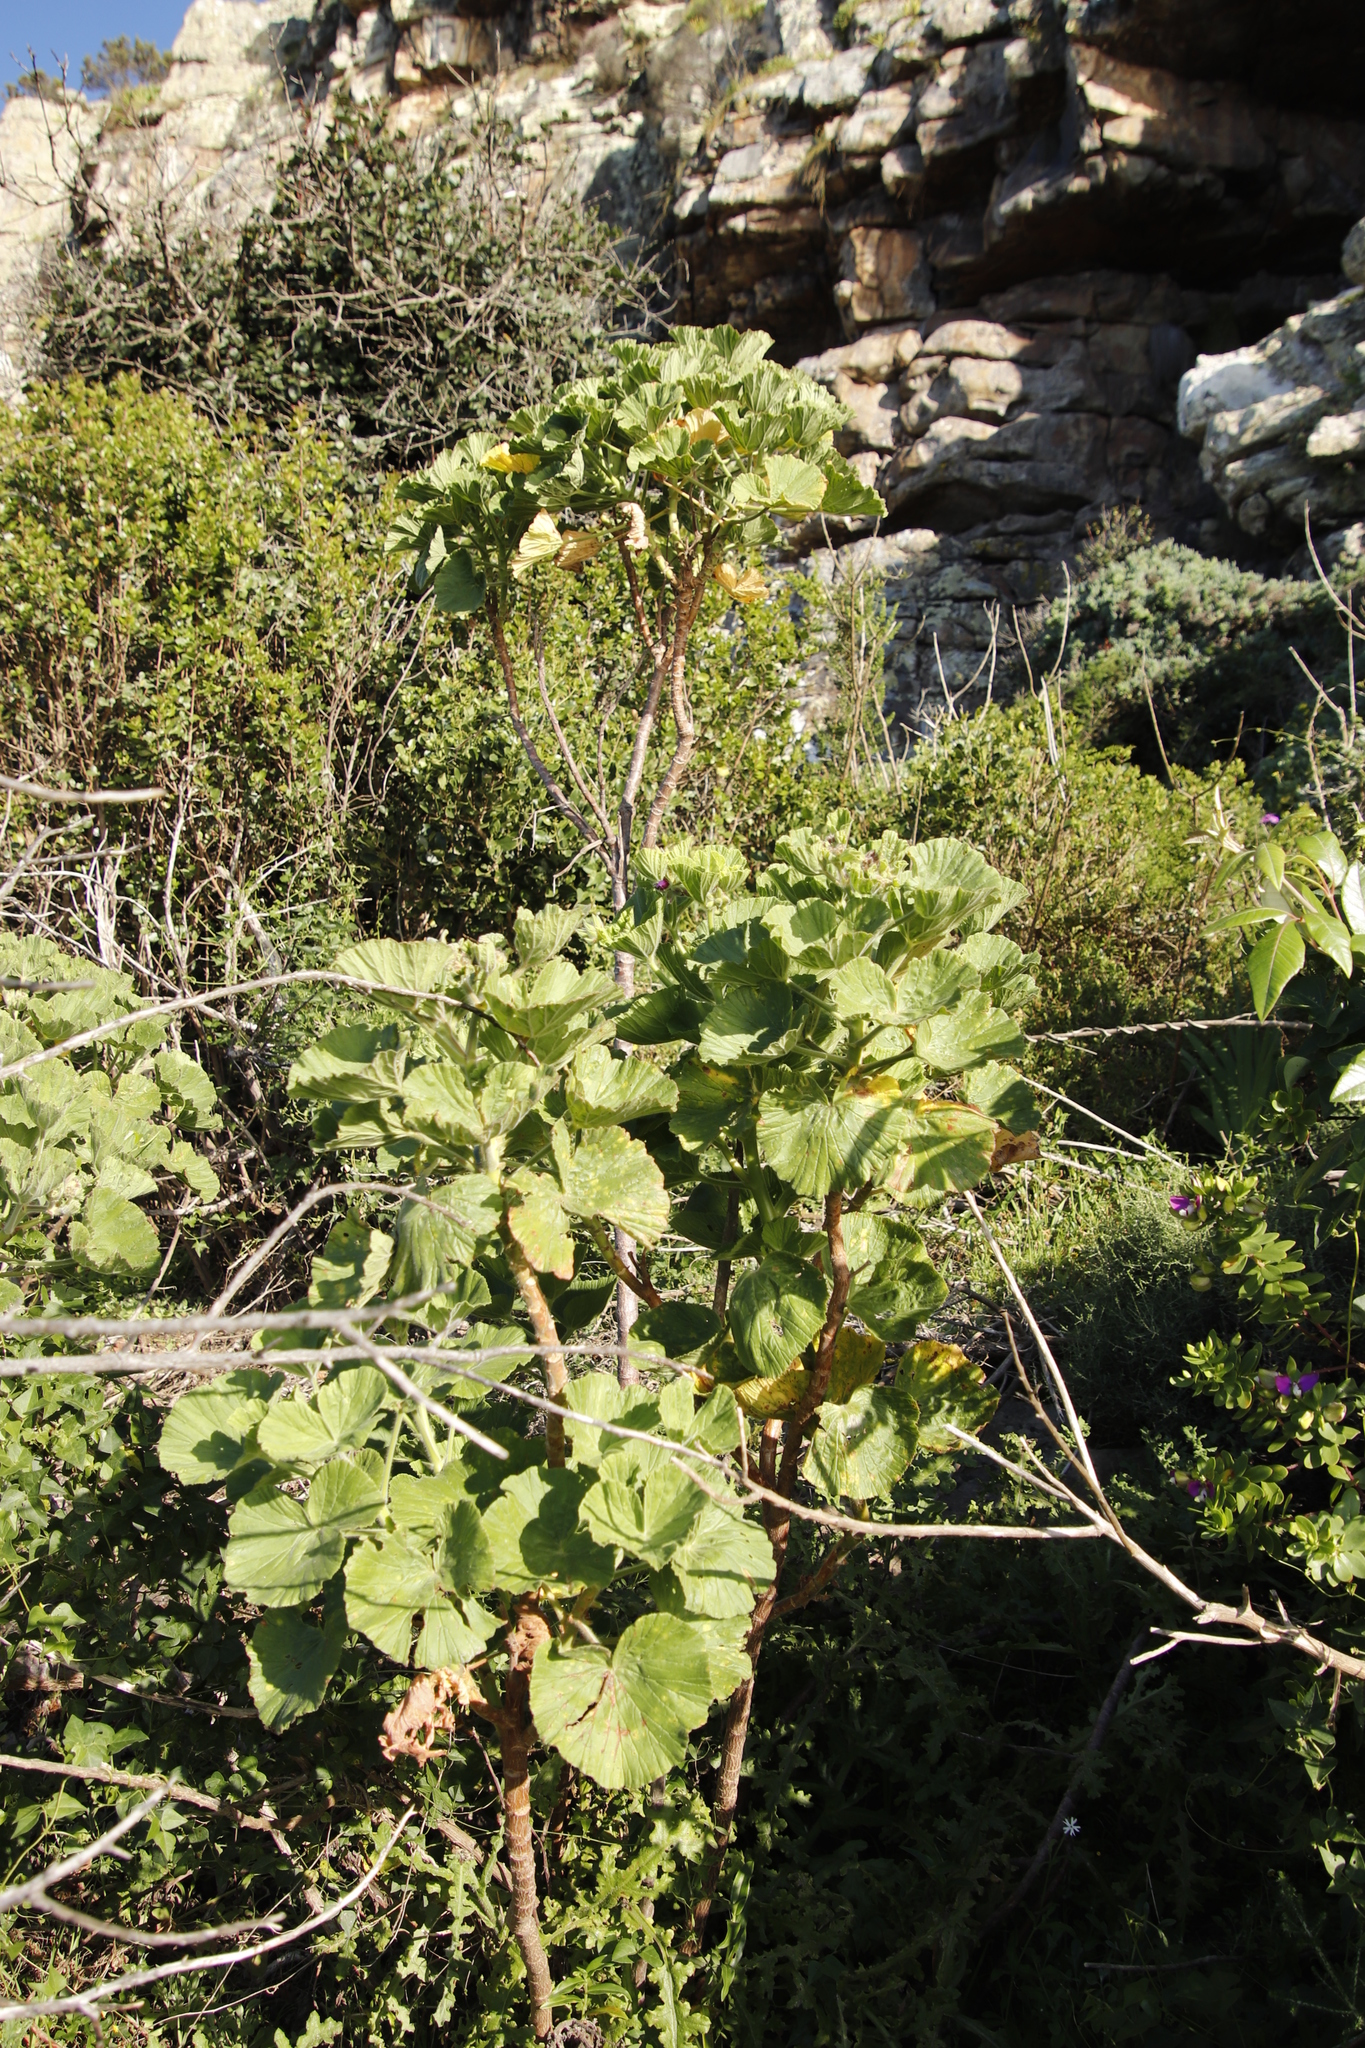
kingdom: Plantae
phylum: Tracheophyta
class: Magnoliopsida
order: Geraniales
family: Geraniaceae
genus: Pelargonium
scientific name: Pelargonium cucullatum
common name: Tree pelargonium
